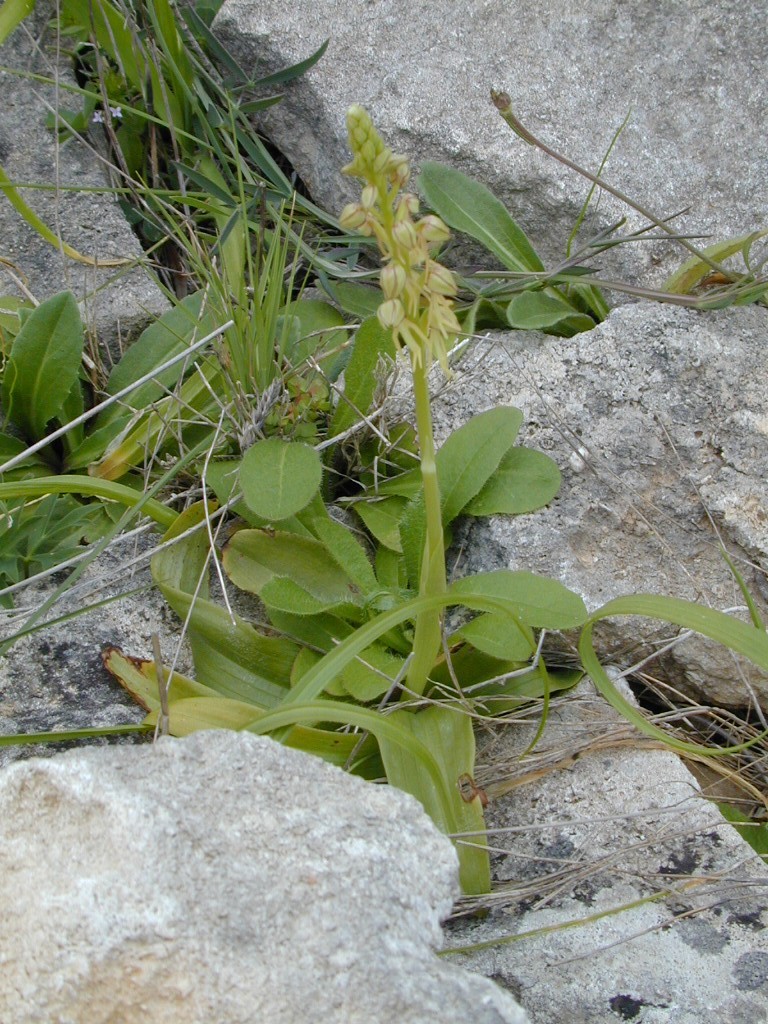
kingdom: Plantae
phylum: Tracheophyta
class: Liliopsida
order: Asparagales
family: Orchidaceae
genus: Orchis
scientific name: Orchis anthropophora
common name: Man orchid
